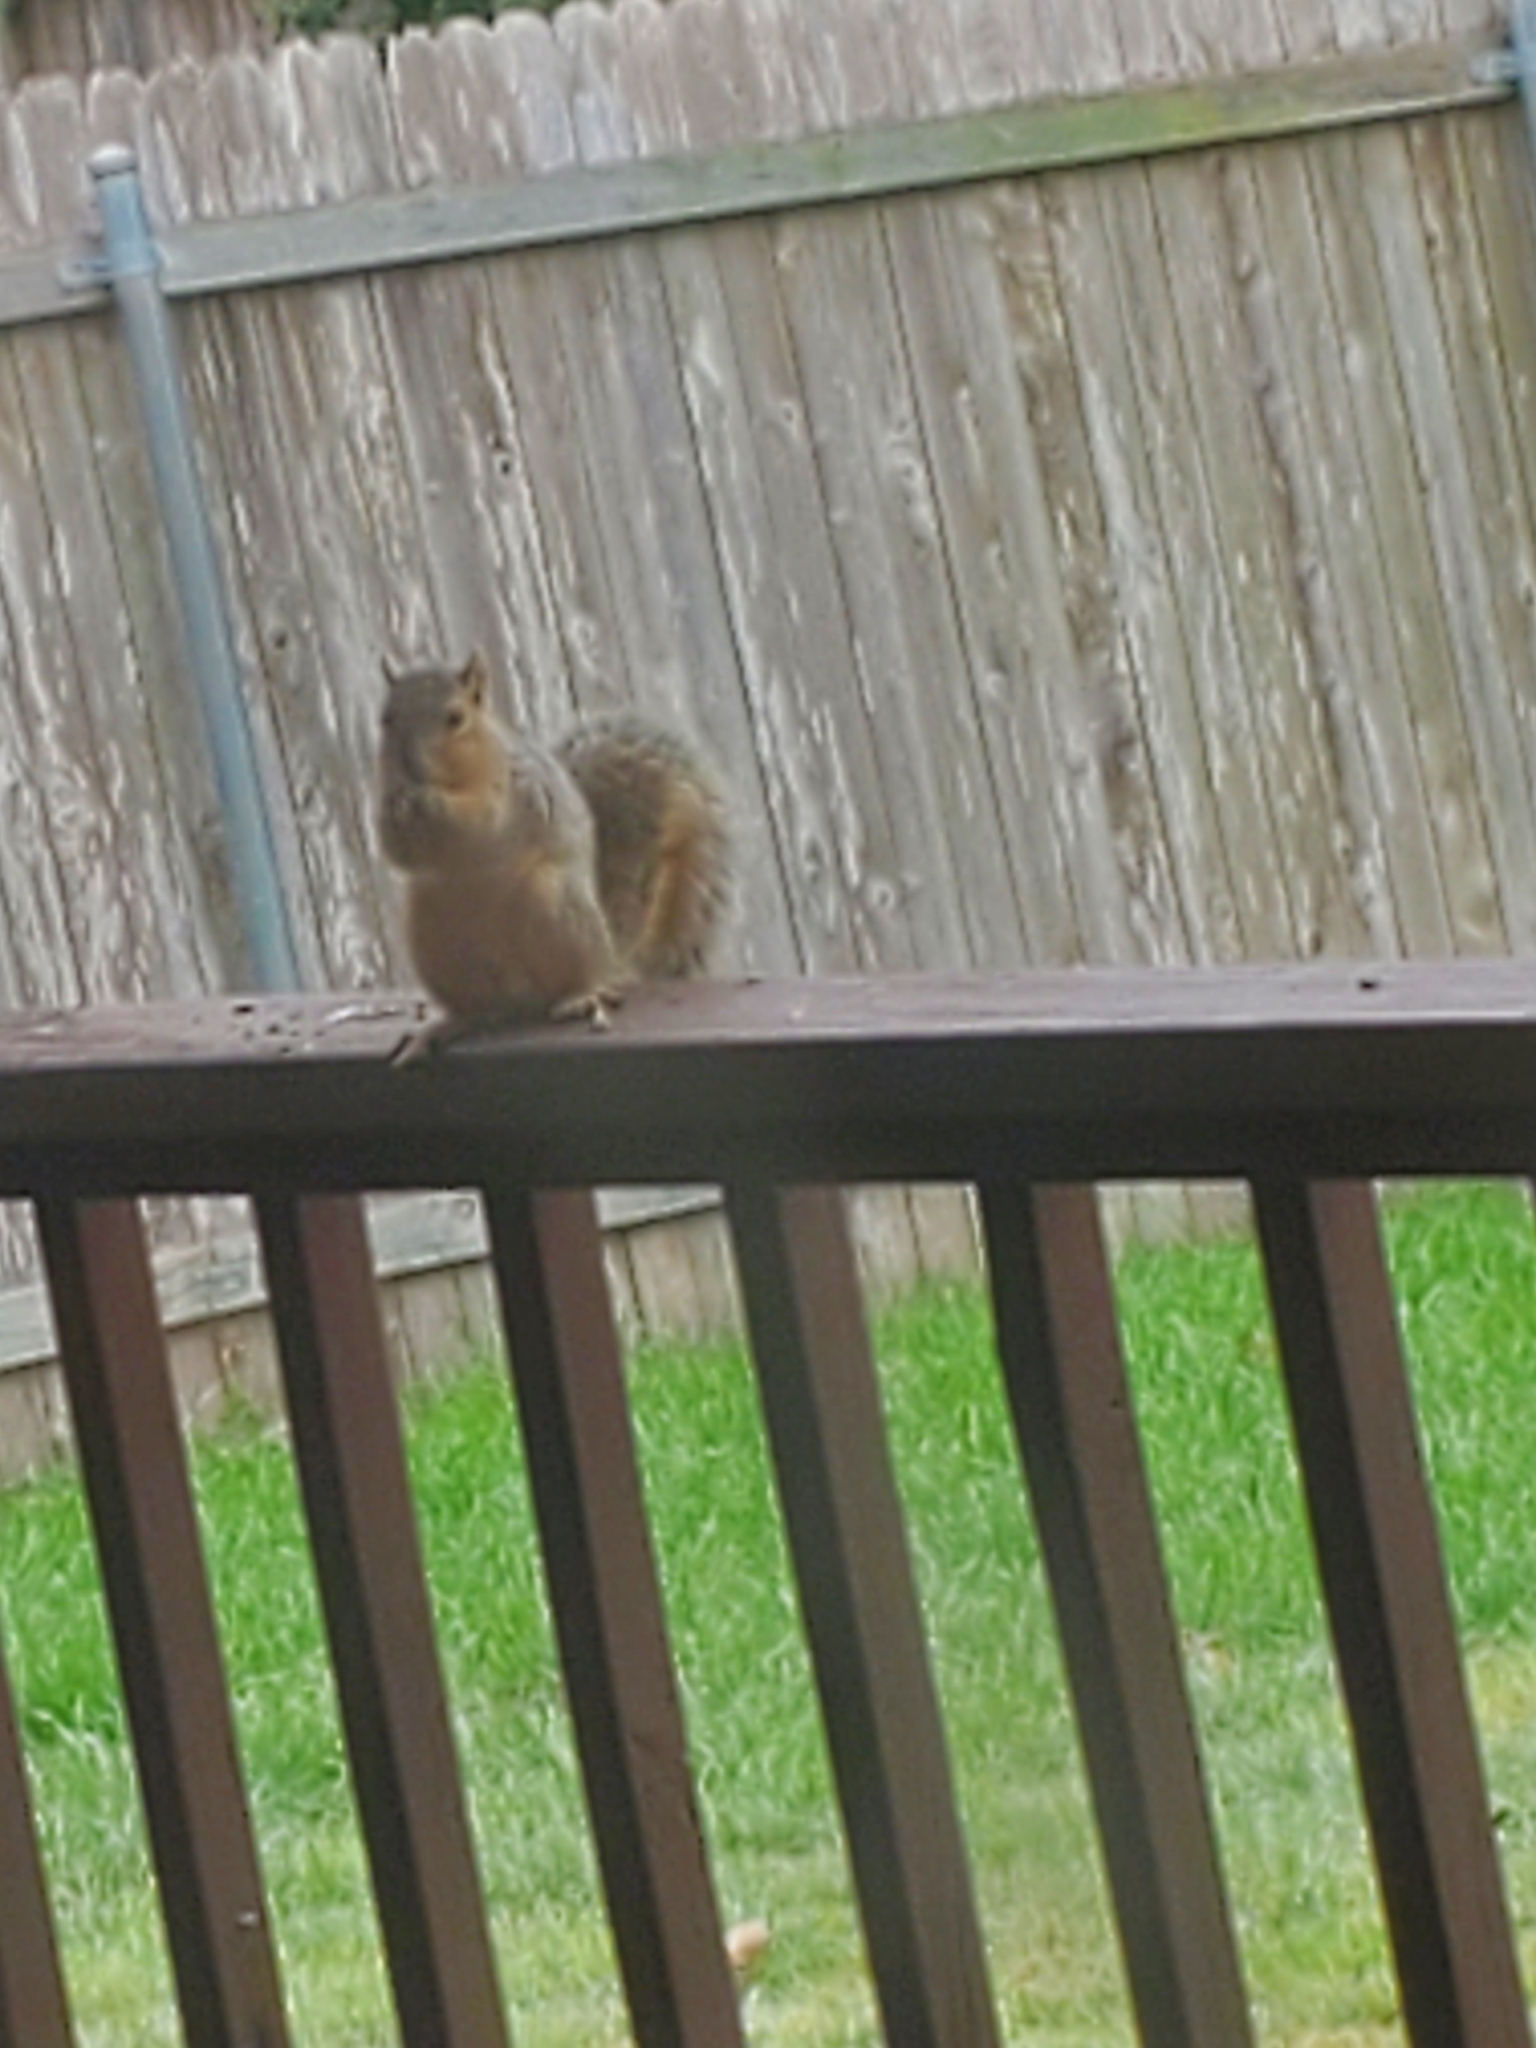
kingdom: Animalia
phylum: Chordata
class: Mammalia
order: Rodentia
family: Sciuridae
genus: Sciurus
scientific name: Sciurus niger
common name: Fox squirrel
